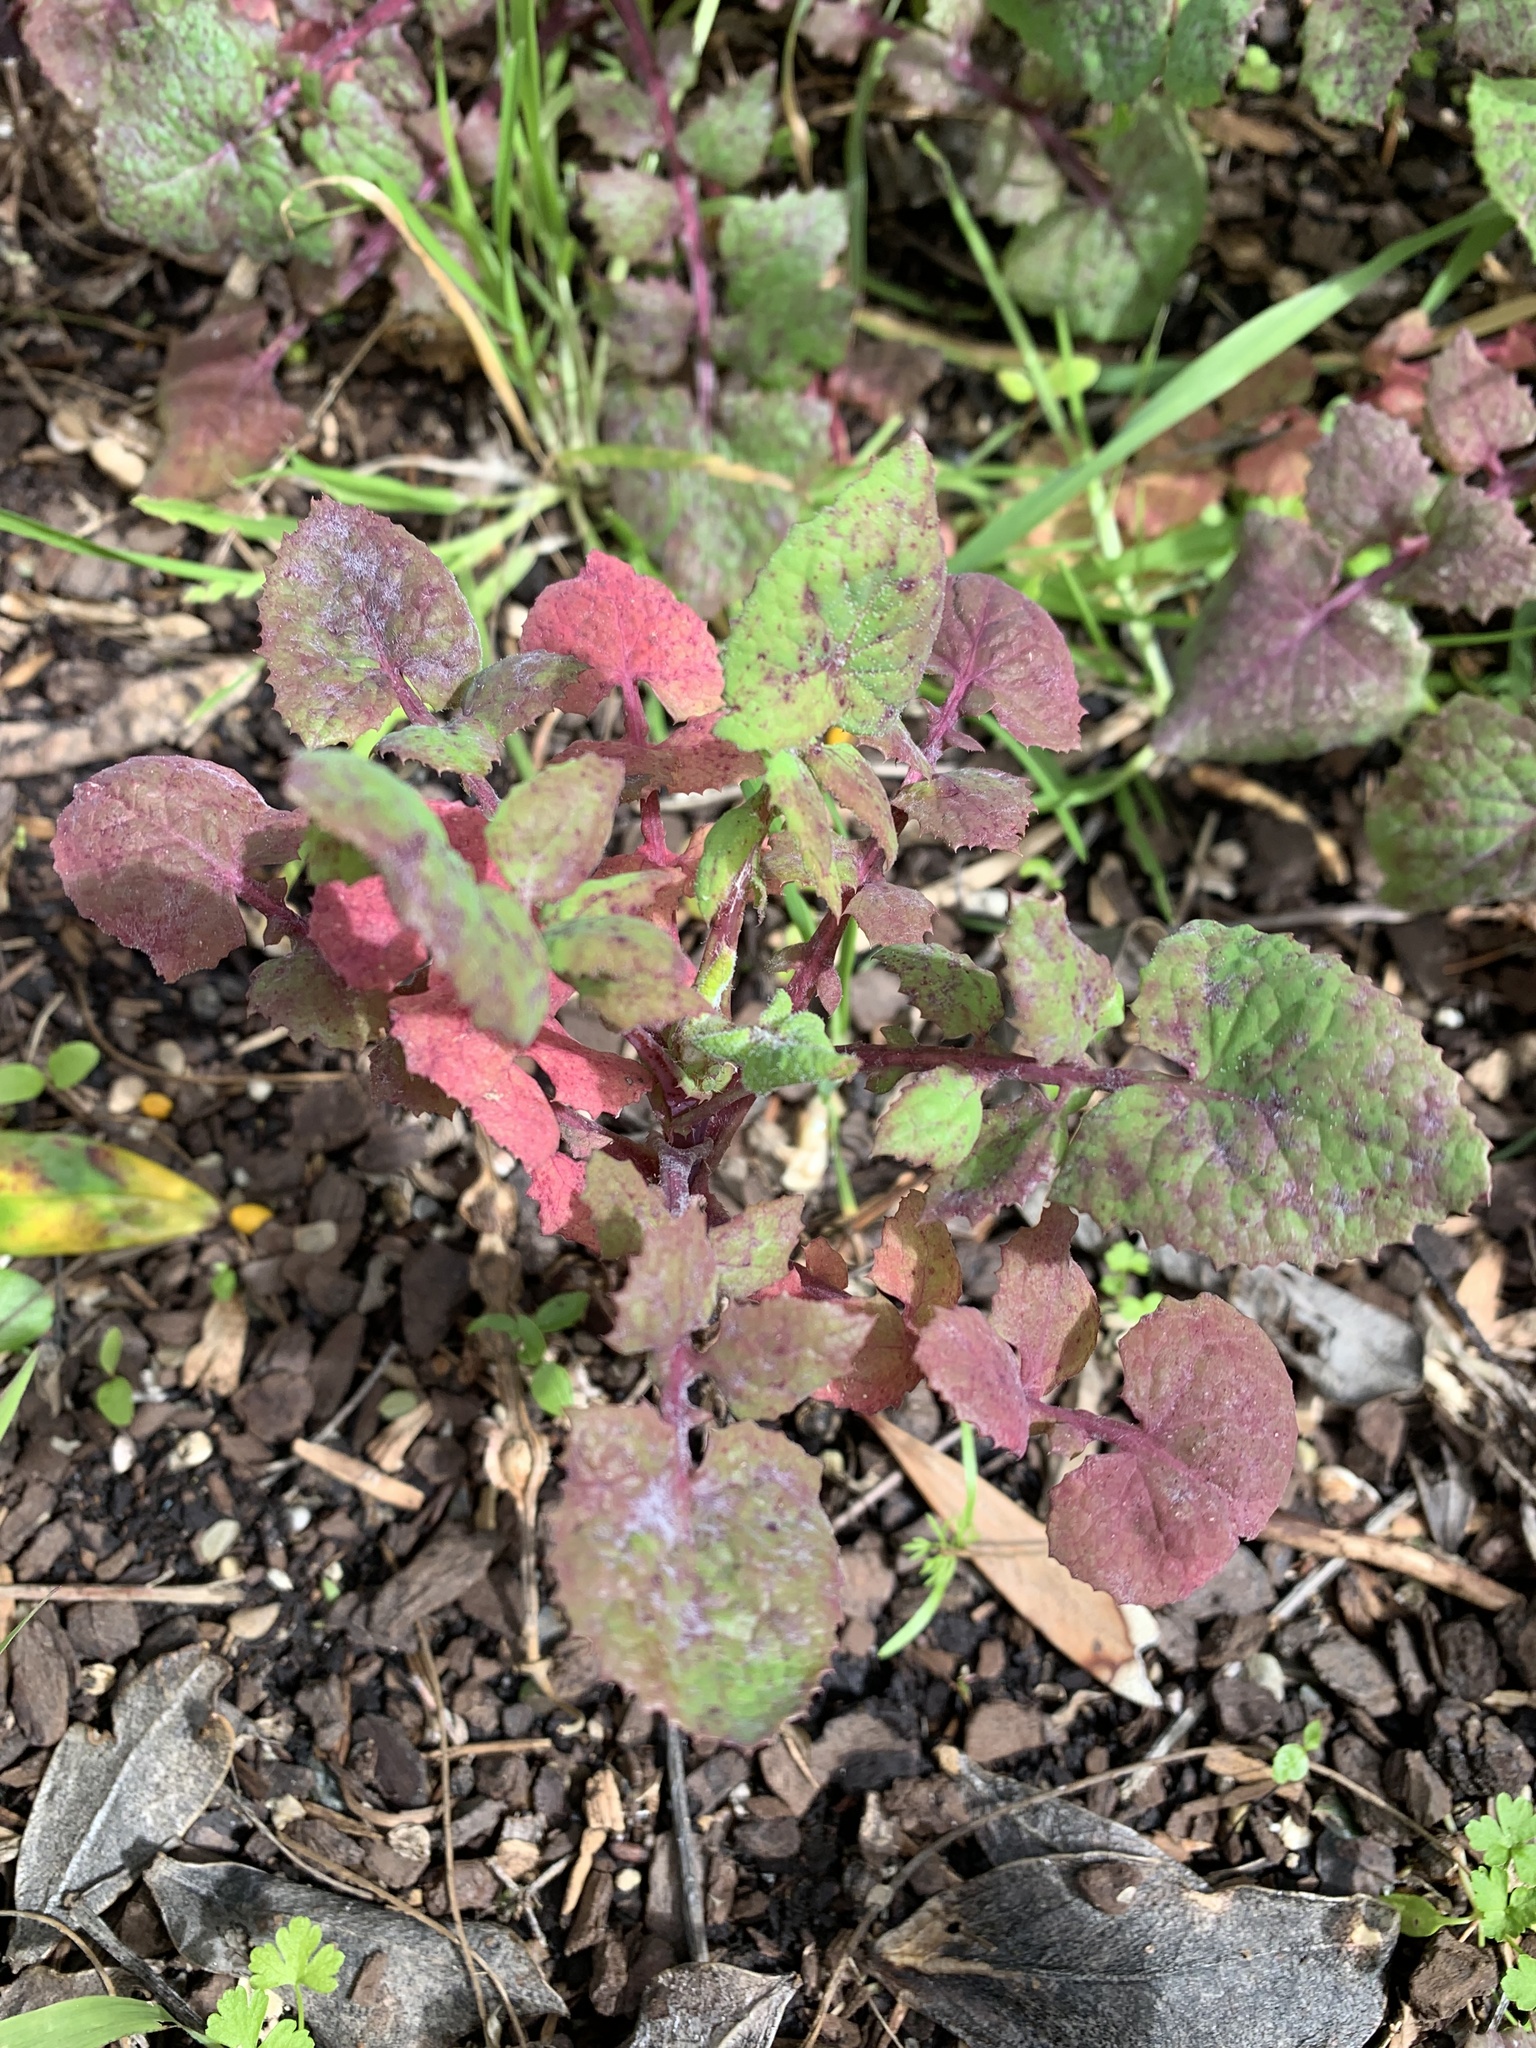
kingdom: Plantae
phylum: Tracheophyta
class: Magnoliopsida
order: Asterales
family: Asteraceae
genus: Sonchus
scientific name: Sonchus oleraceus
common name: Common sowthistle
